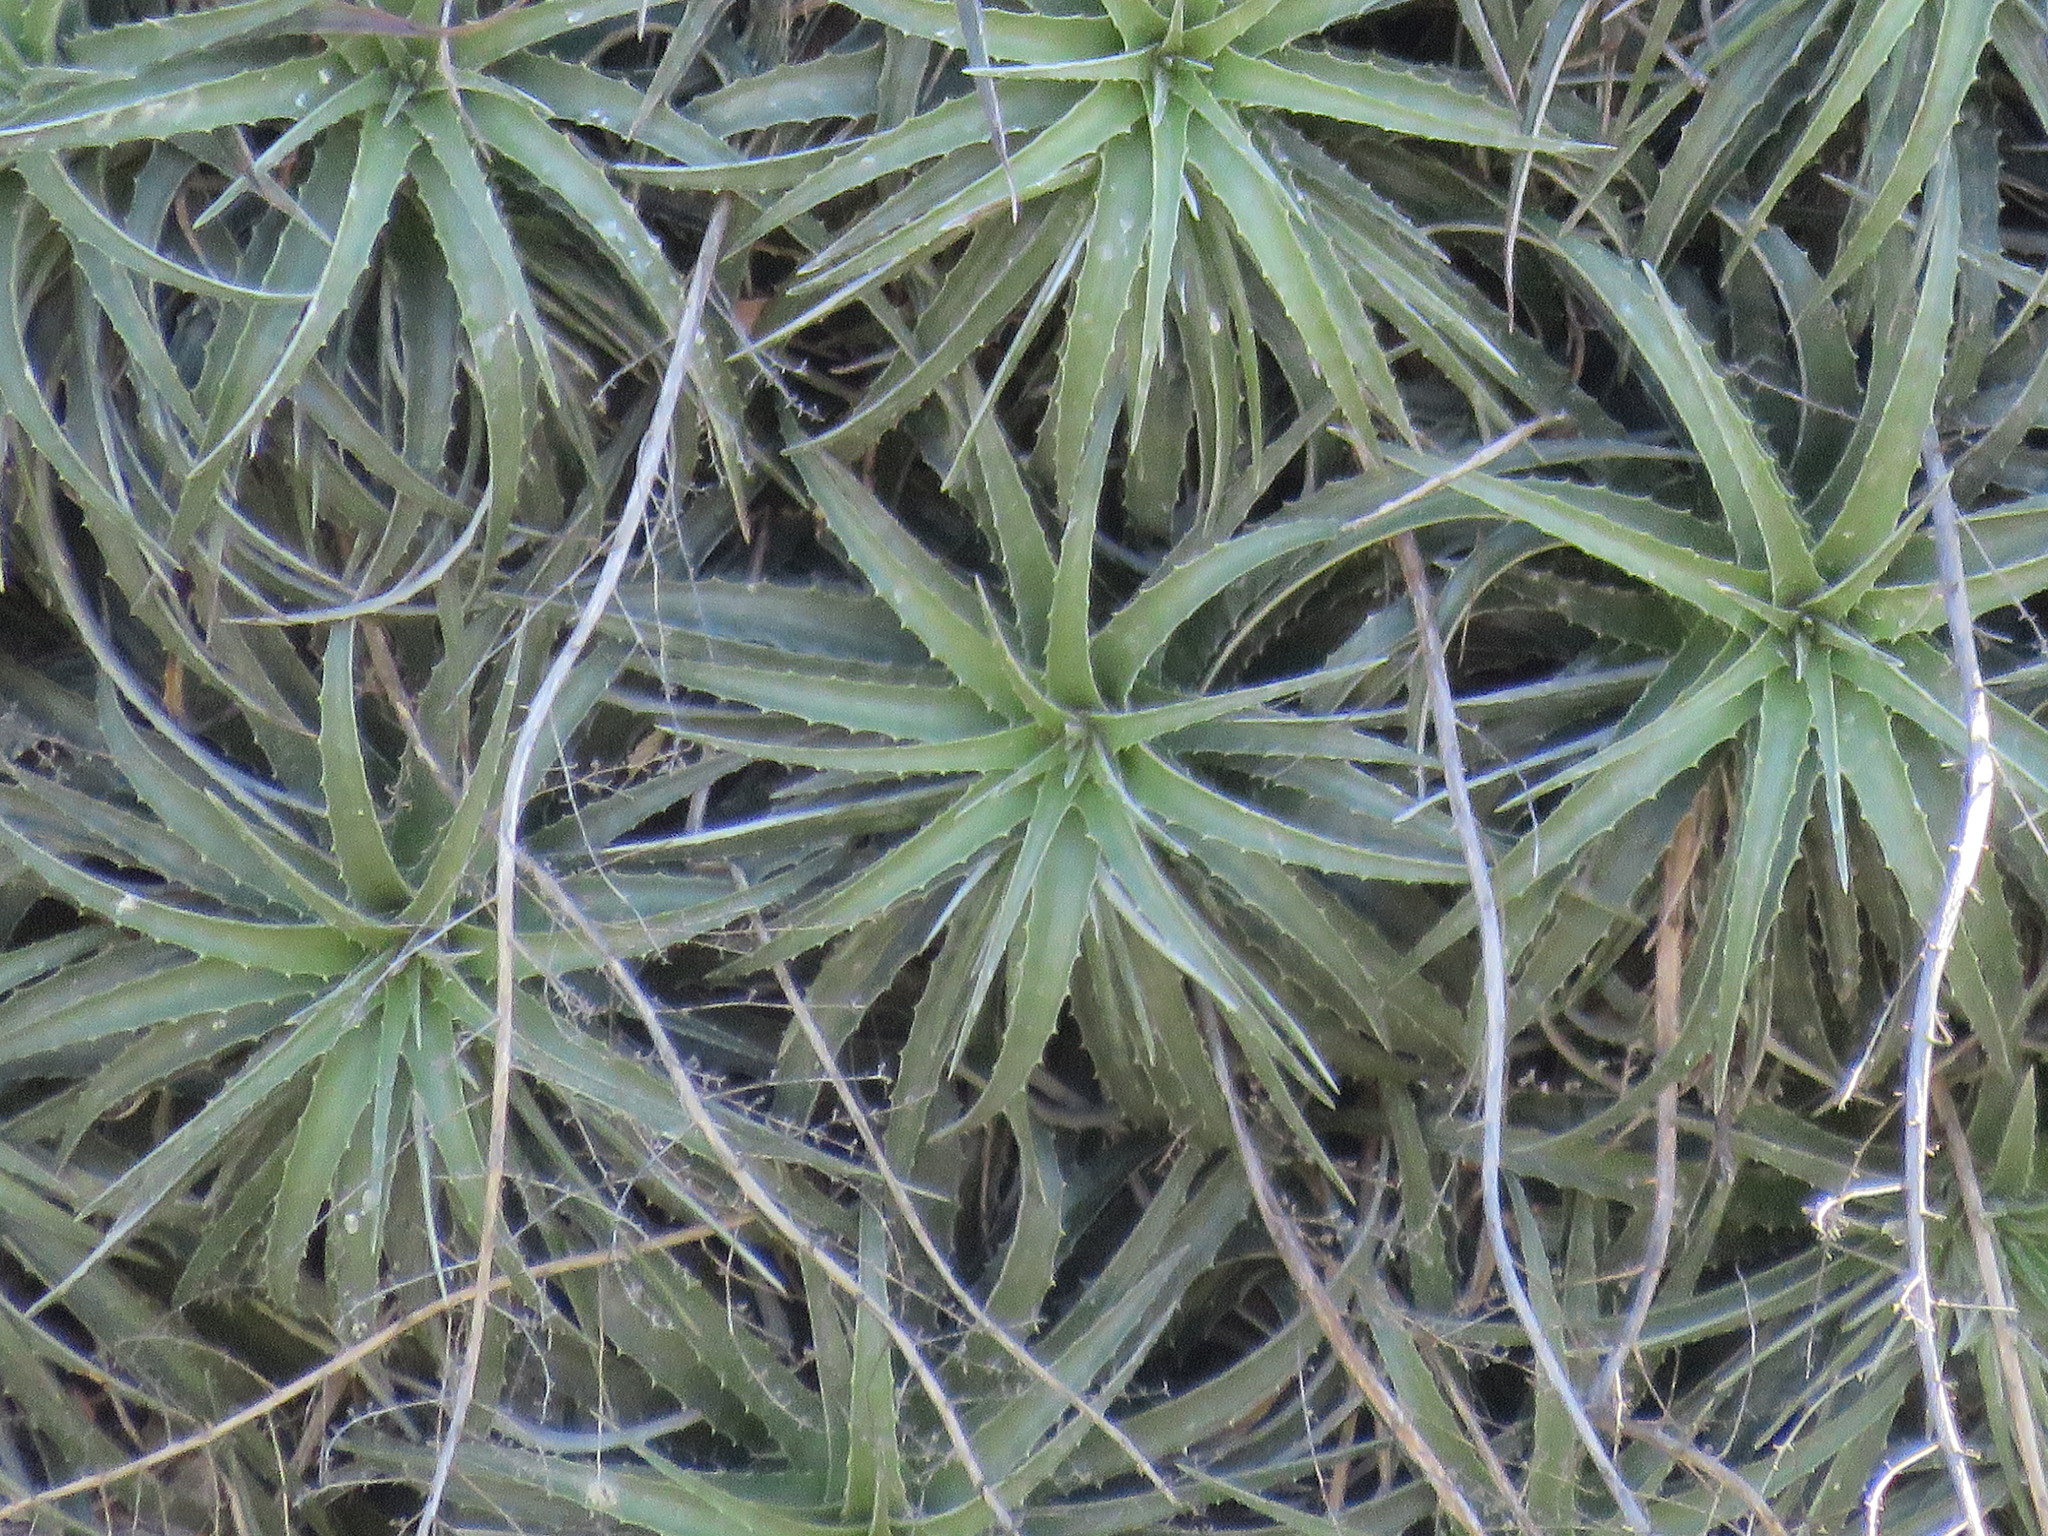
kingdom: Plantae
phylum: Tracheophyta
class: Liliopsida
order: Poales
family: Bromeliaceae
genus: Hechtia
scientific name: Hechtia elegans
